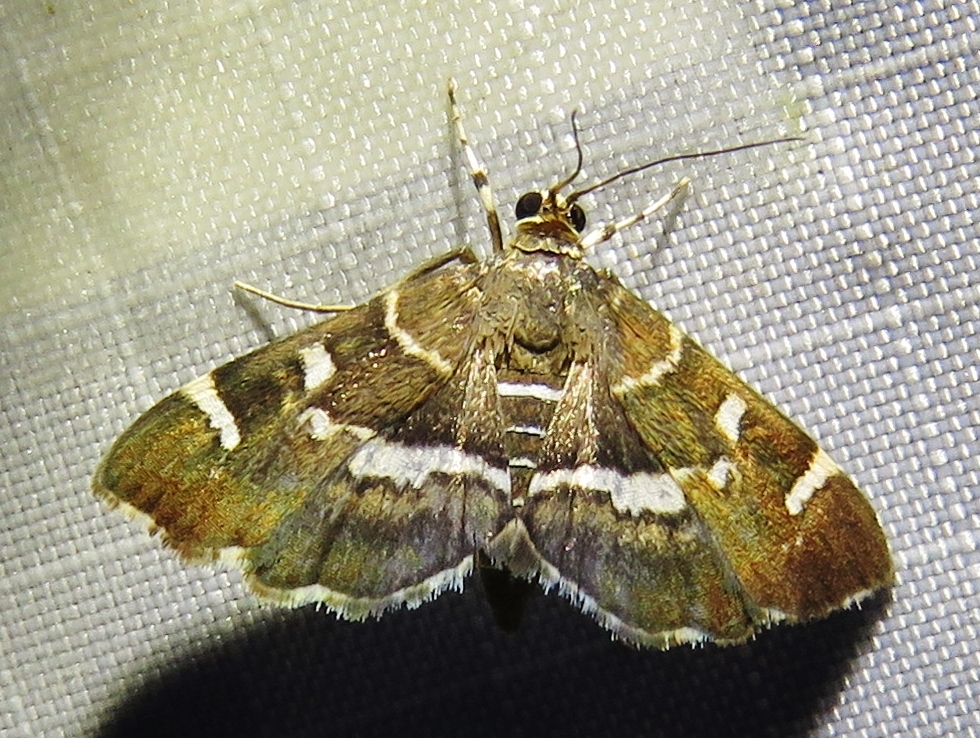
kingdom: Animalia
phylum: Arthropoda
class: Insecta
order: Lepidoptera
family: Crambidae
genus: Hymenia
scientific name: Hymenia perspectalis
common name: Spotted beet webworm
